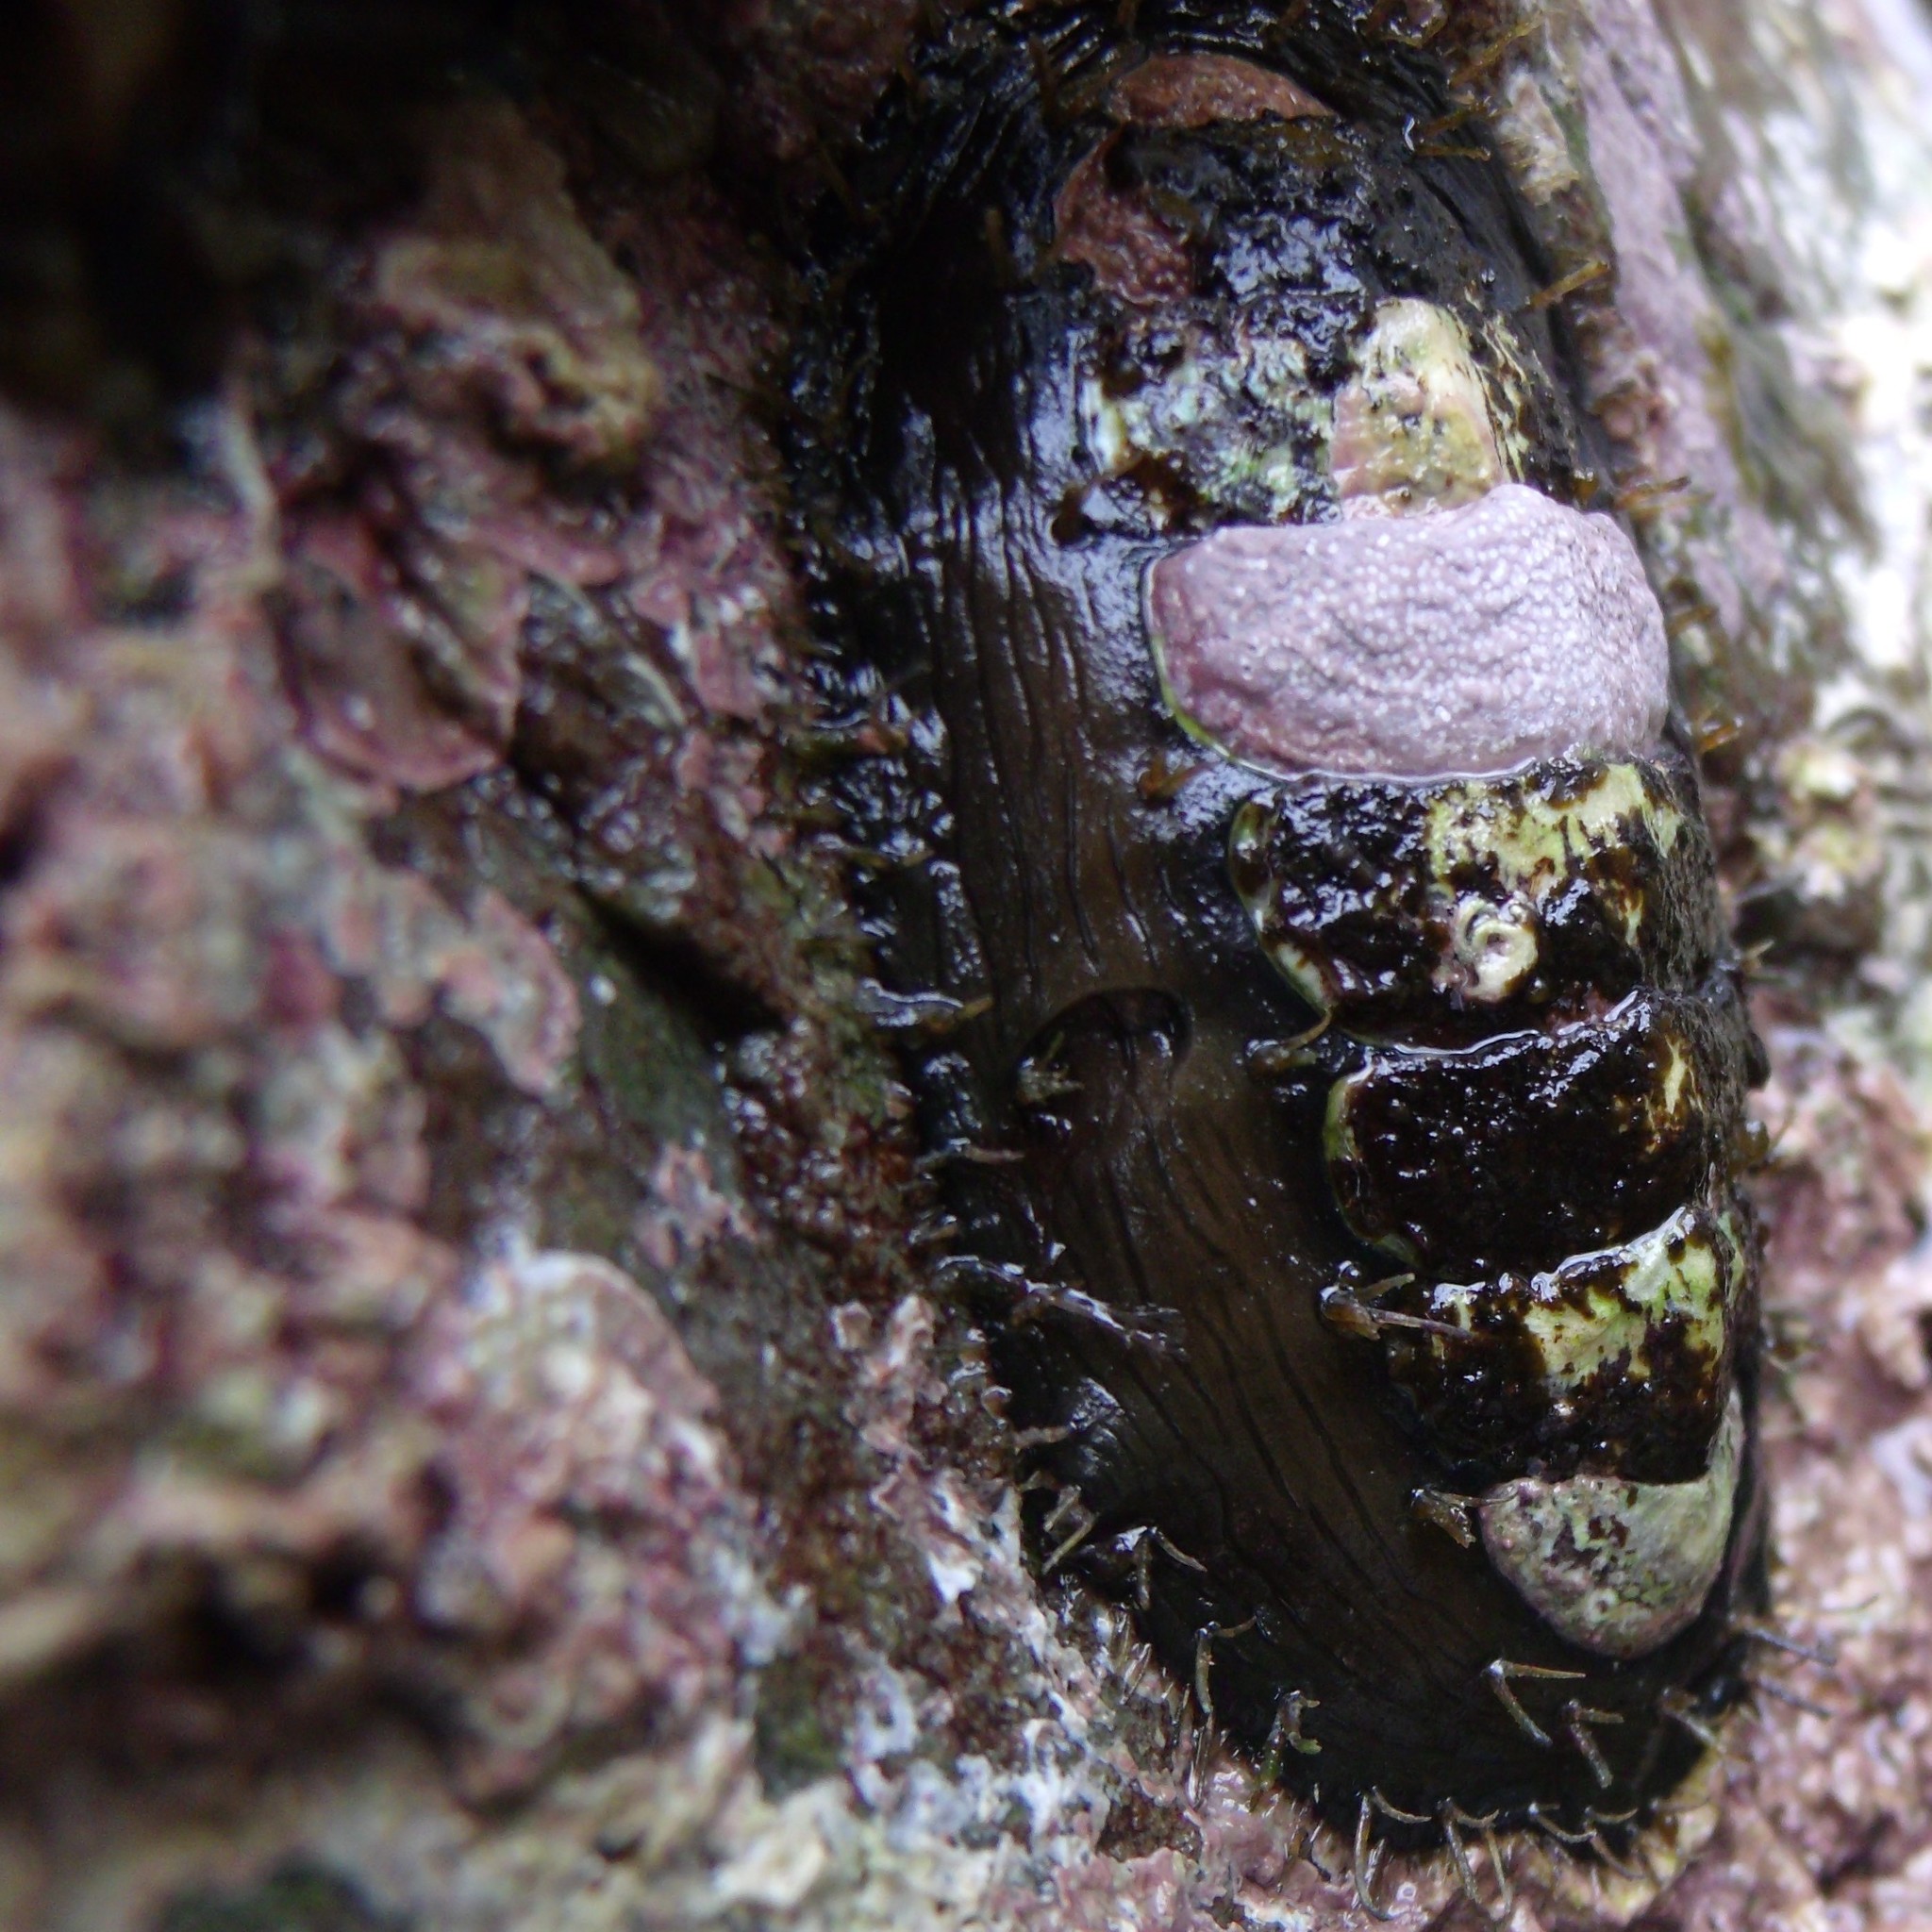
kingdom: Animalia
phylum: Mollusca
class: Polyplacophora
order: Chitonida
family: Mopaliidae
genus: Plaxiphora
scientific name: Plaxiphora biramosa
